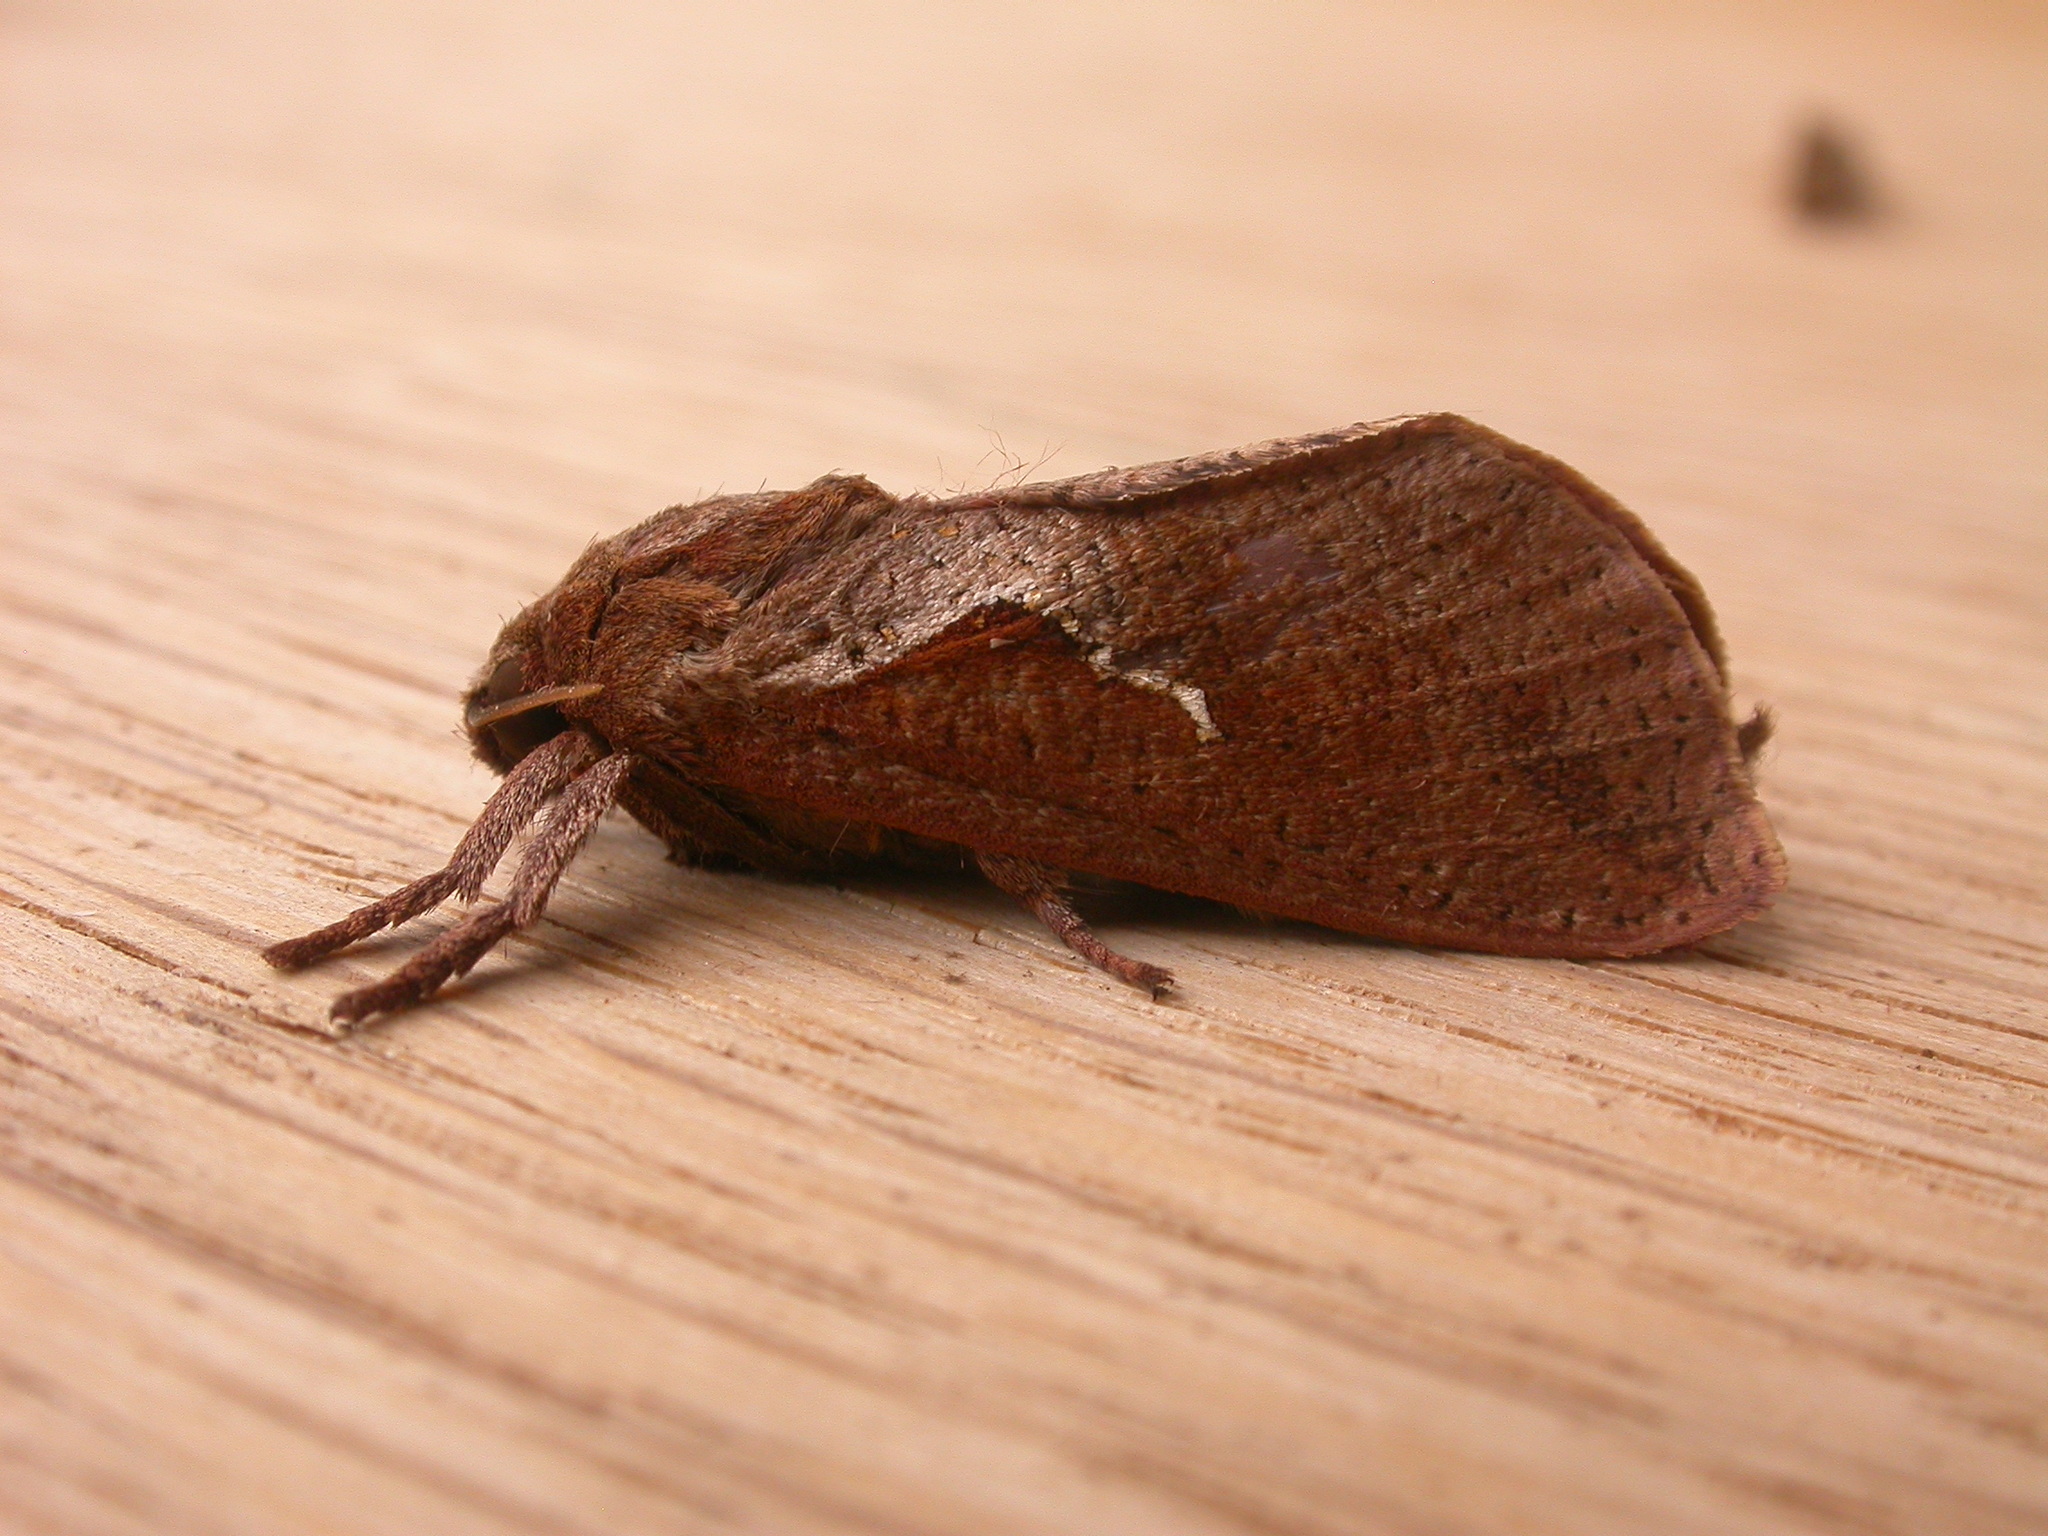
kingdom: Animalia
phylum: Arthropoda
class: Insecta
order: Lepidoptera
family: Hepialidae
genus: Elhamma
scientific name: Elhamma australasiae
